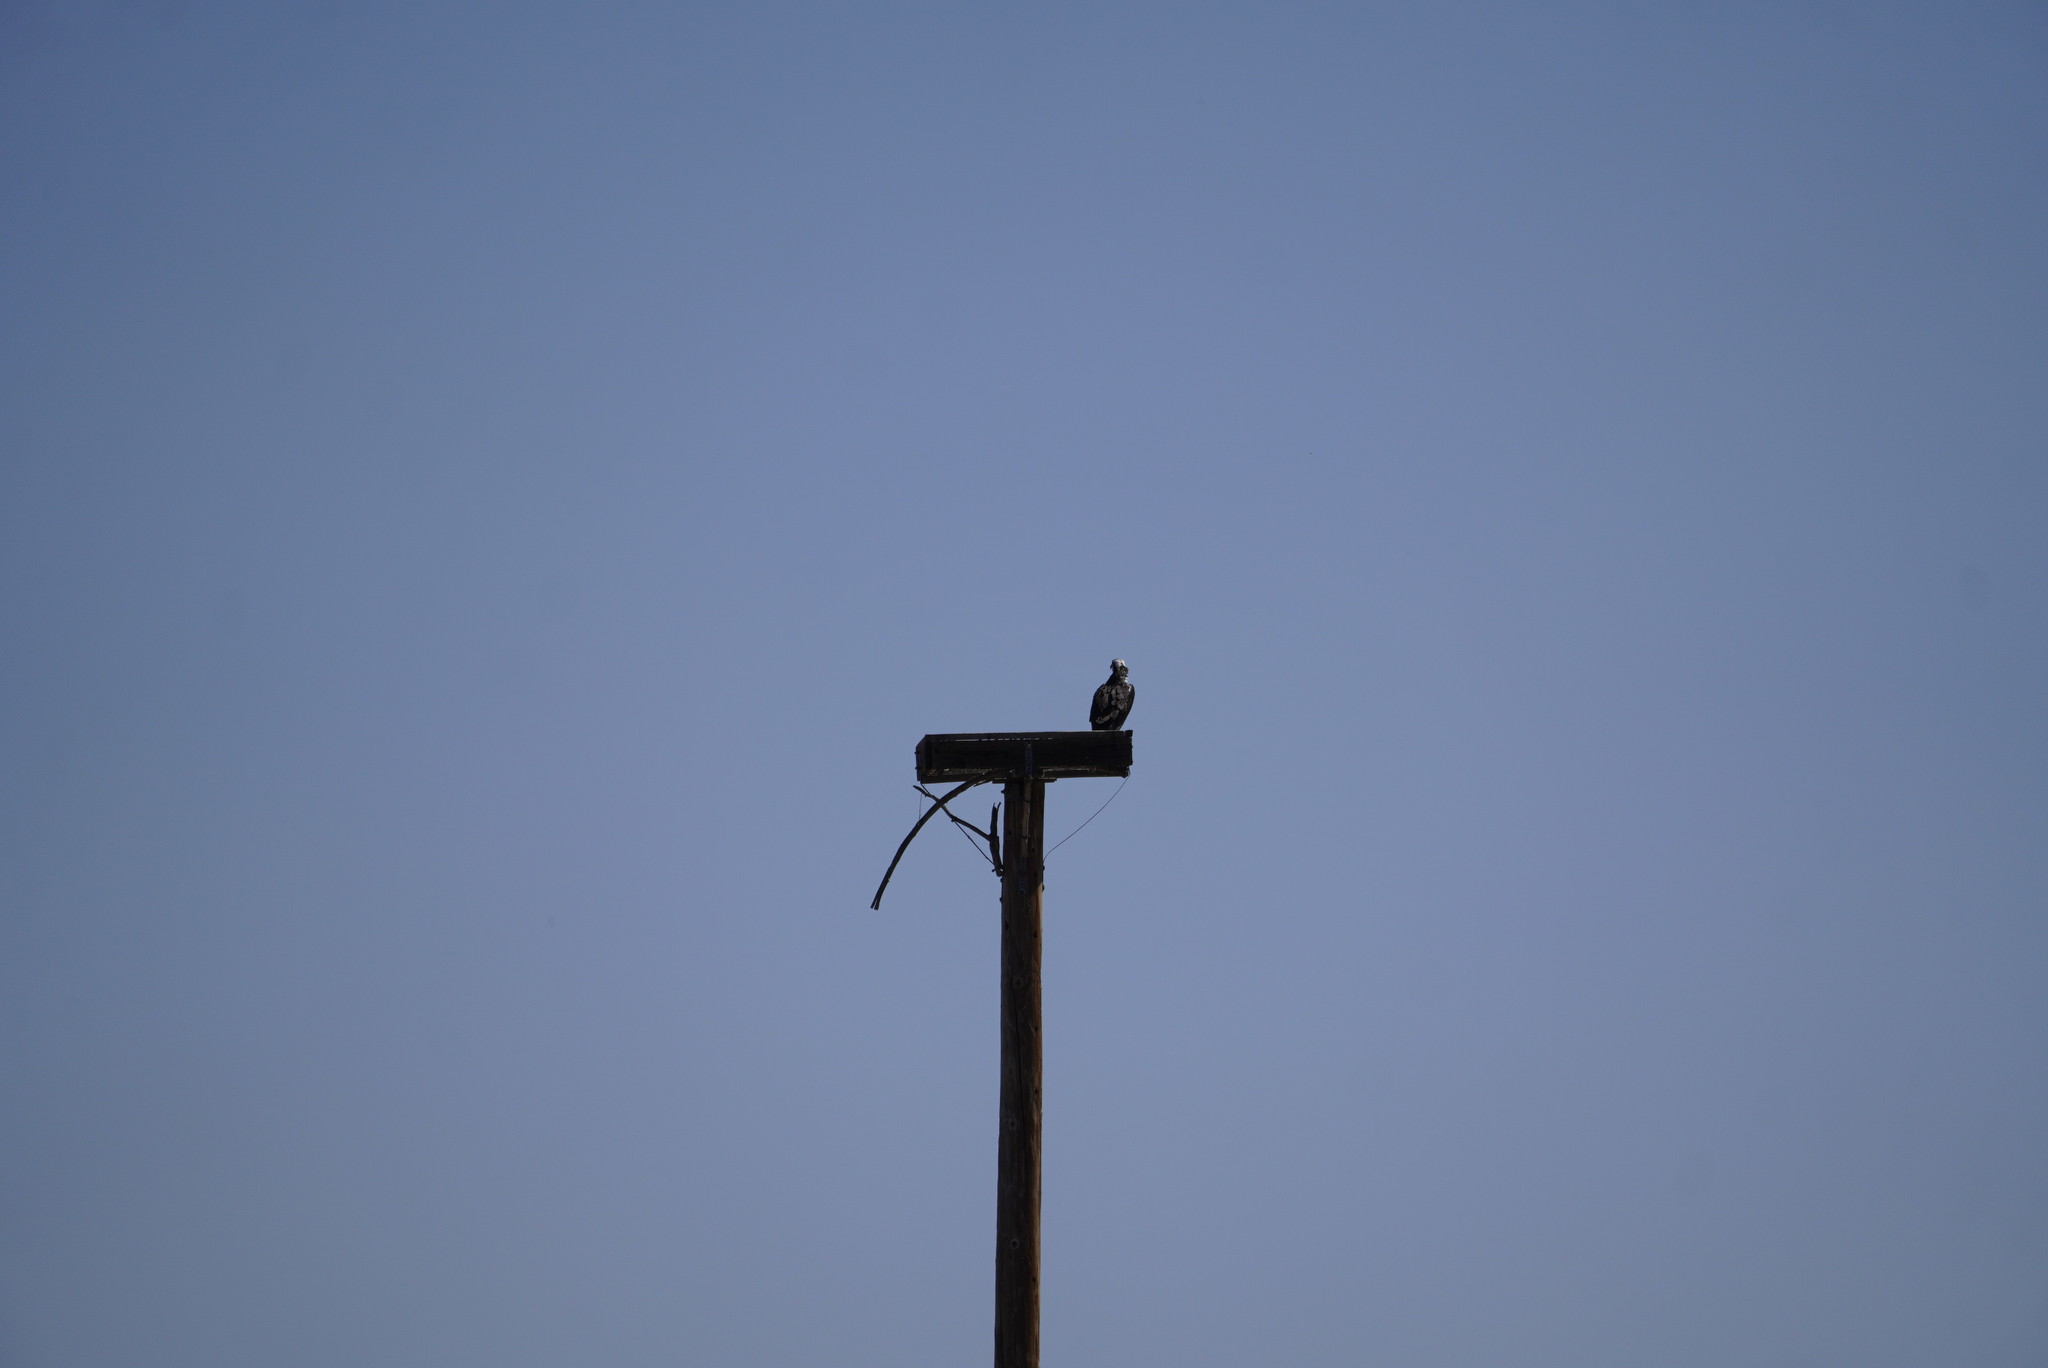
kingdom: Animalia
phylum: Chordata
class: Aves
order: Accipitriformes
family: Pandionidae
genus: Pandion
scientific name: Pandion haliaetus
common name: Osprey
